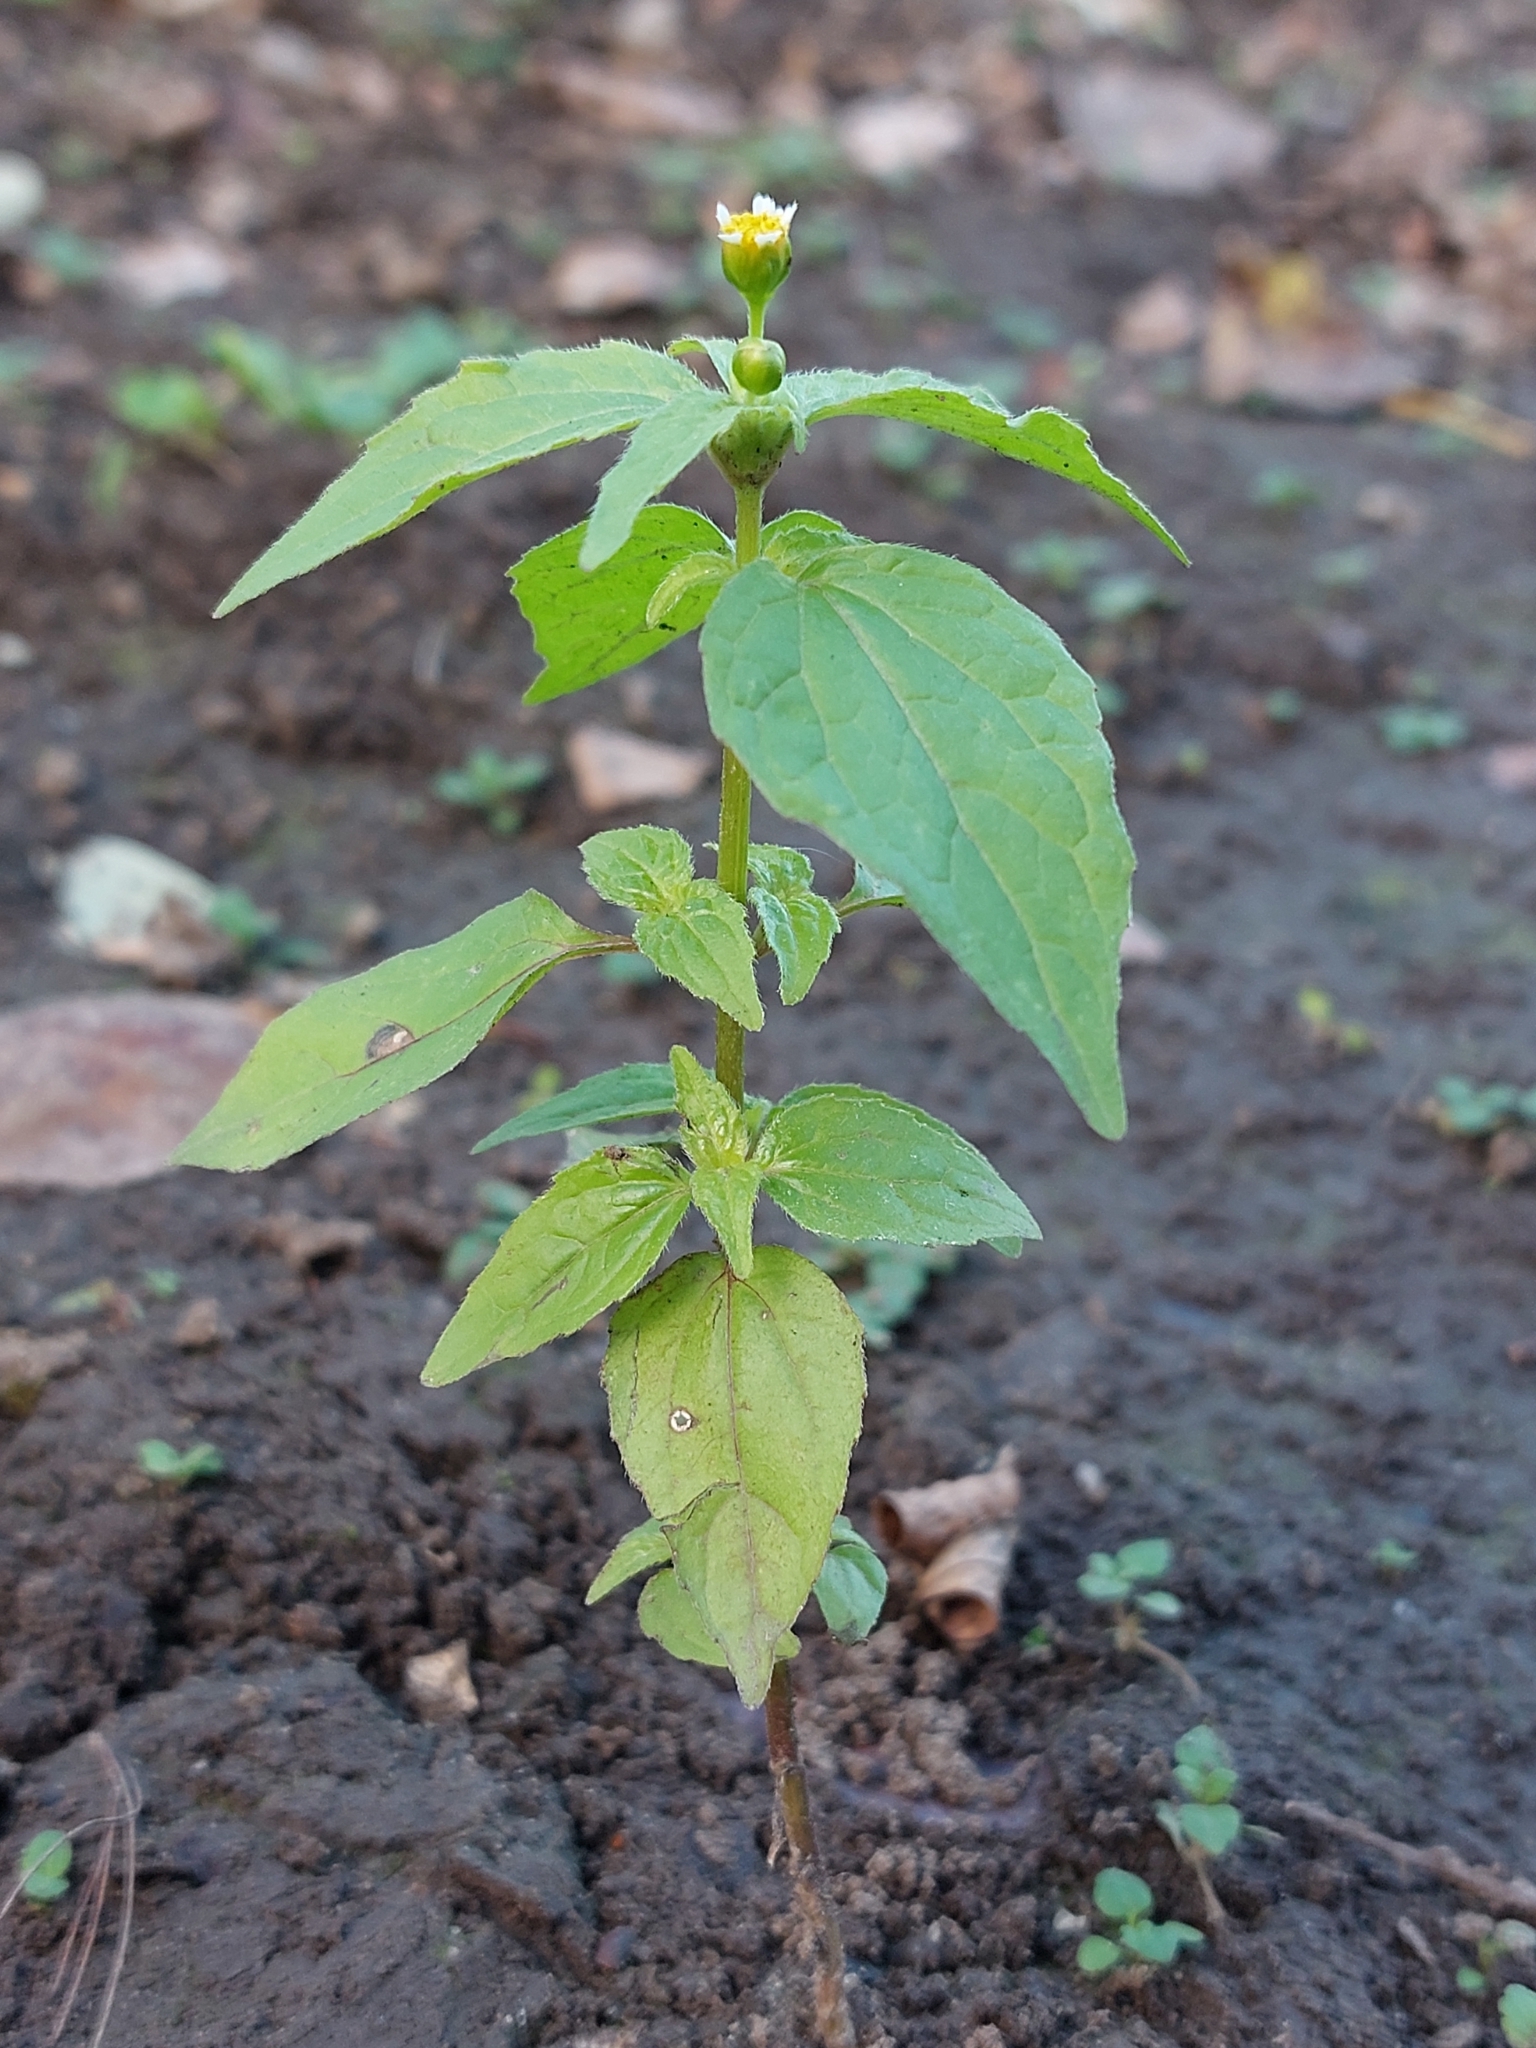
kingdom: Plantae
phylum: Tracheophyta
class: Magnoliopsida
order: Asterales
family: Asteraceae
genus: Galinsoga
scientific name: Galinsoga parviflora
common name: Gallant soldier
